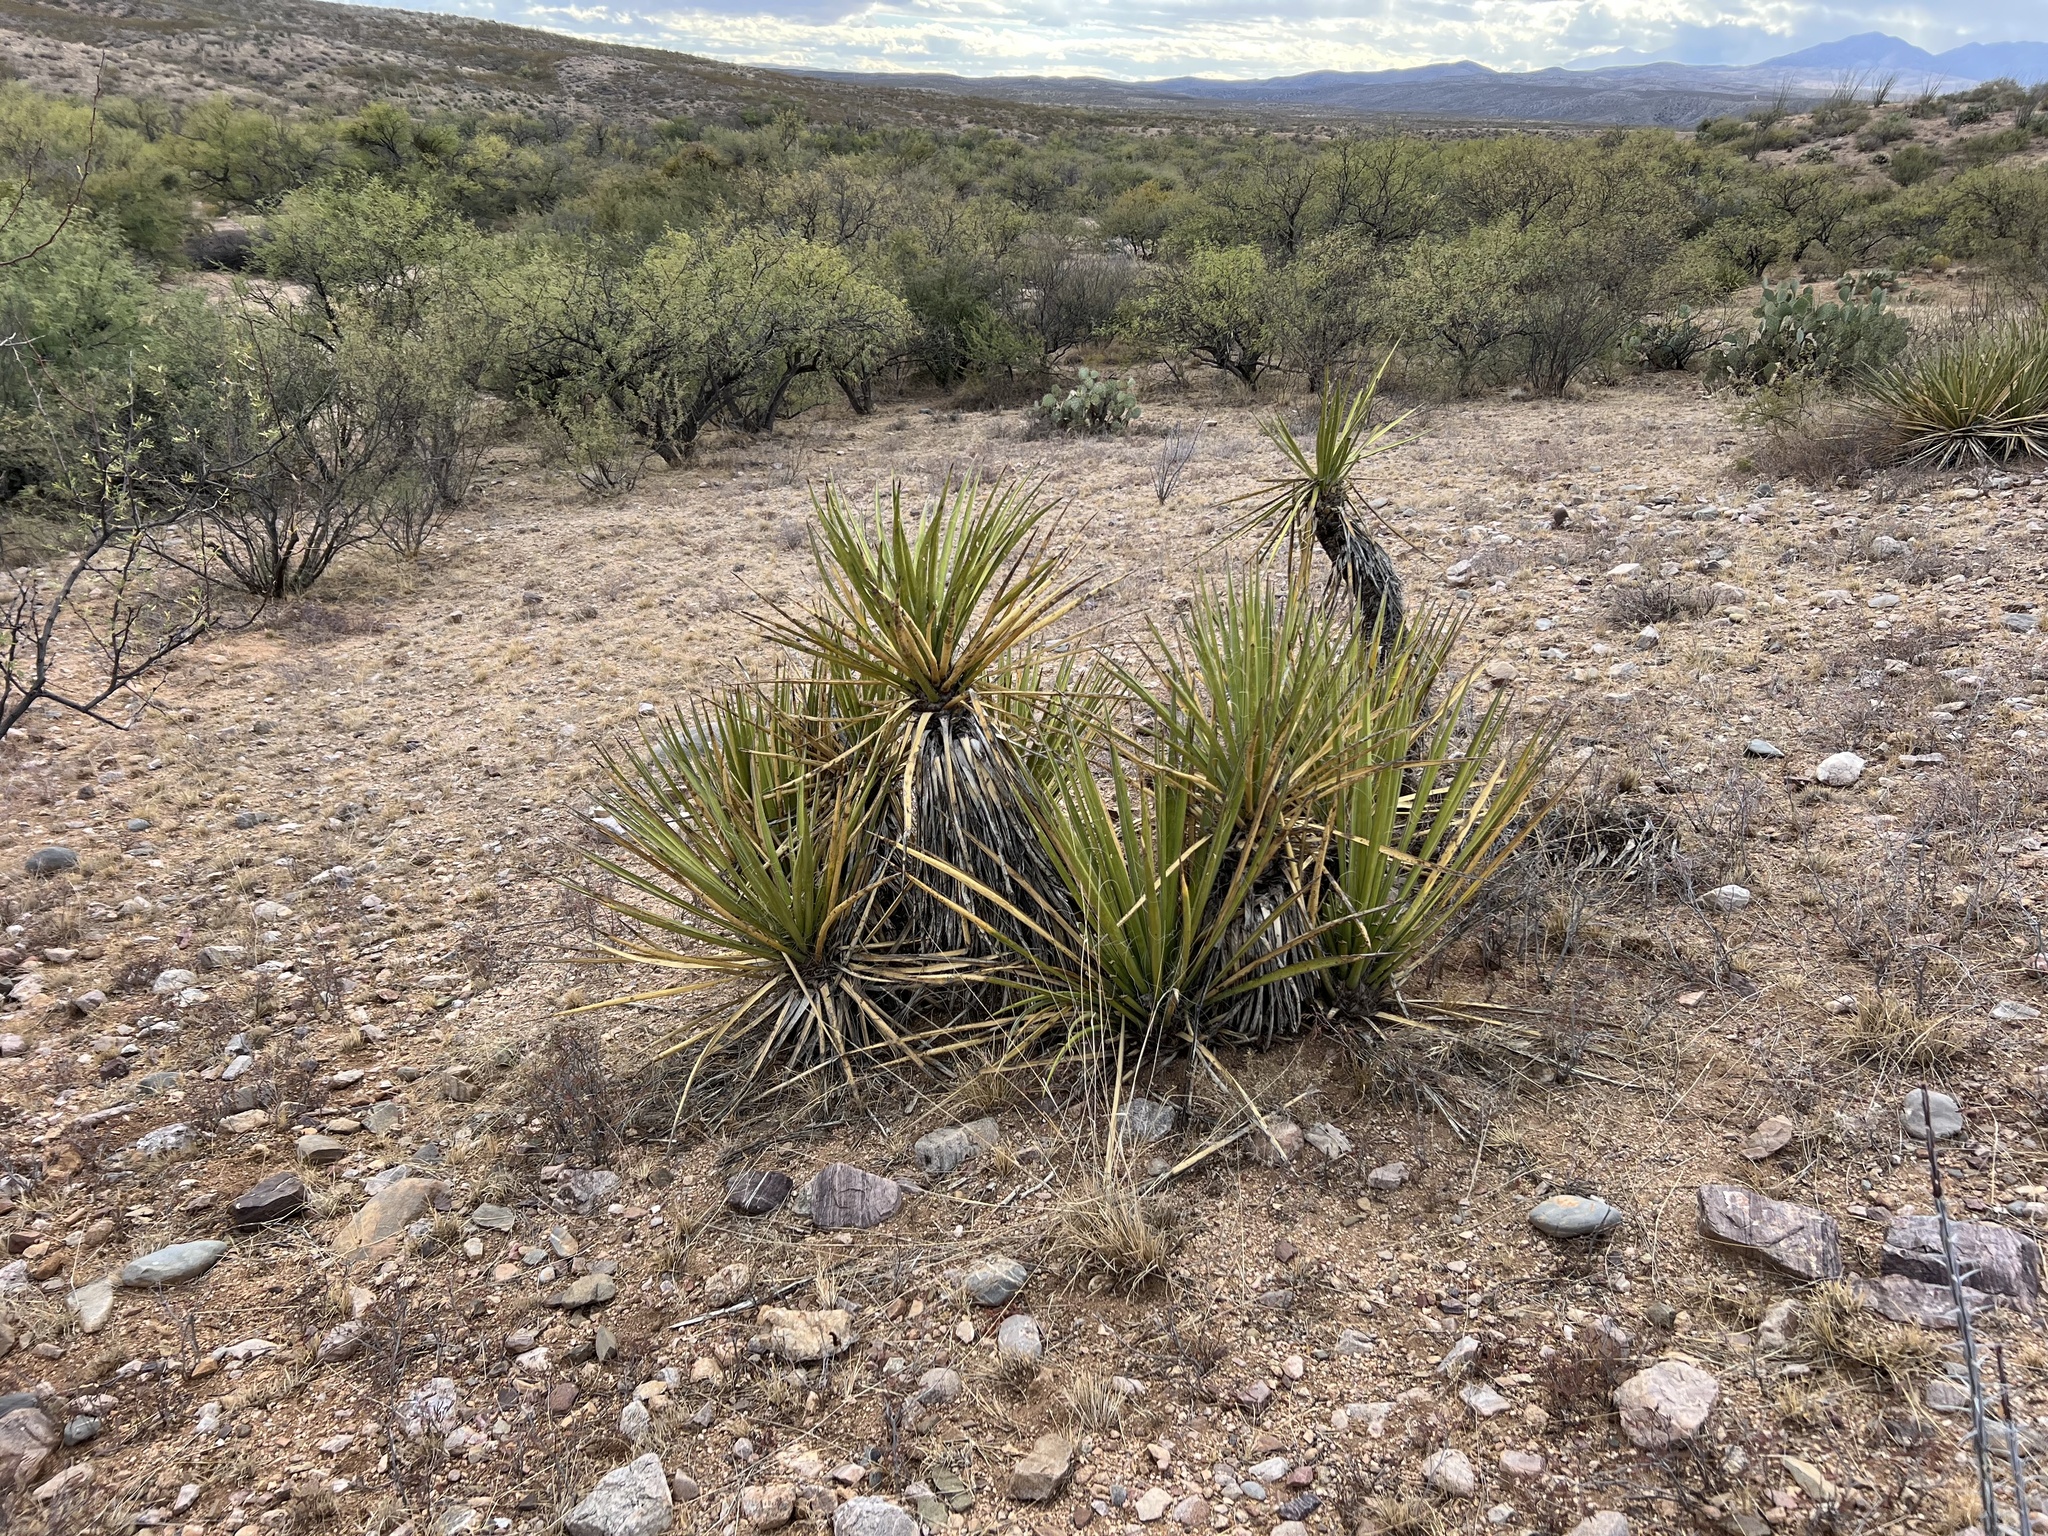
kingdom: Plantae
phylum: Tracheophyta
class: Liliopsida
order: Asparagales
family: Asparagaceae
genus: Yucca
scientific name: Yucca baccata
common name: Banana yucca
